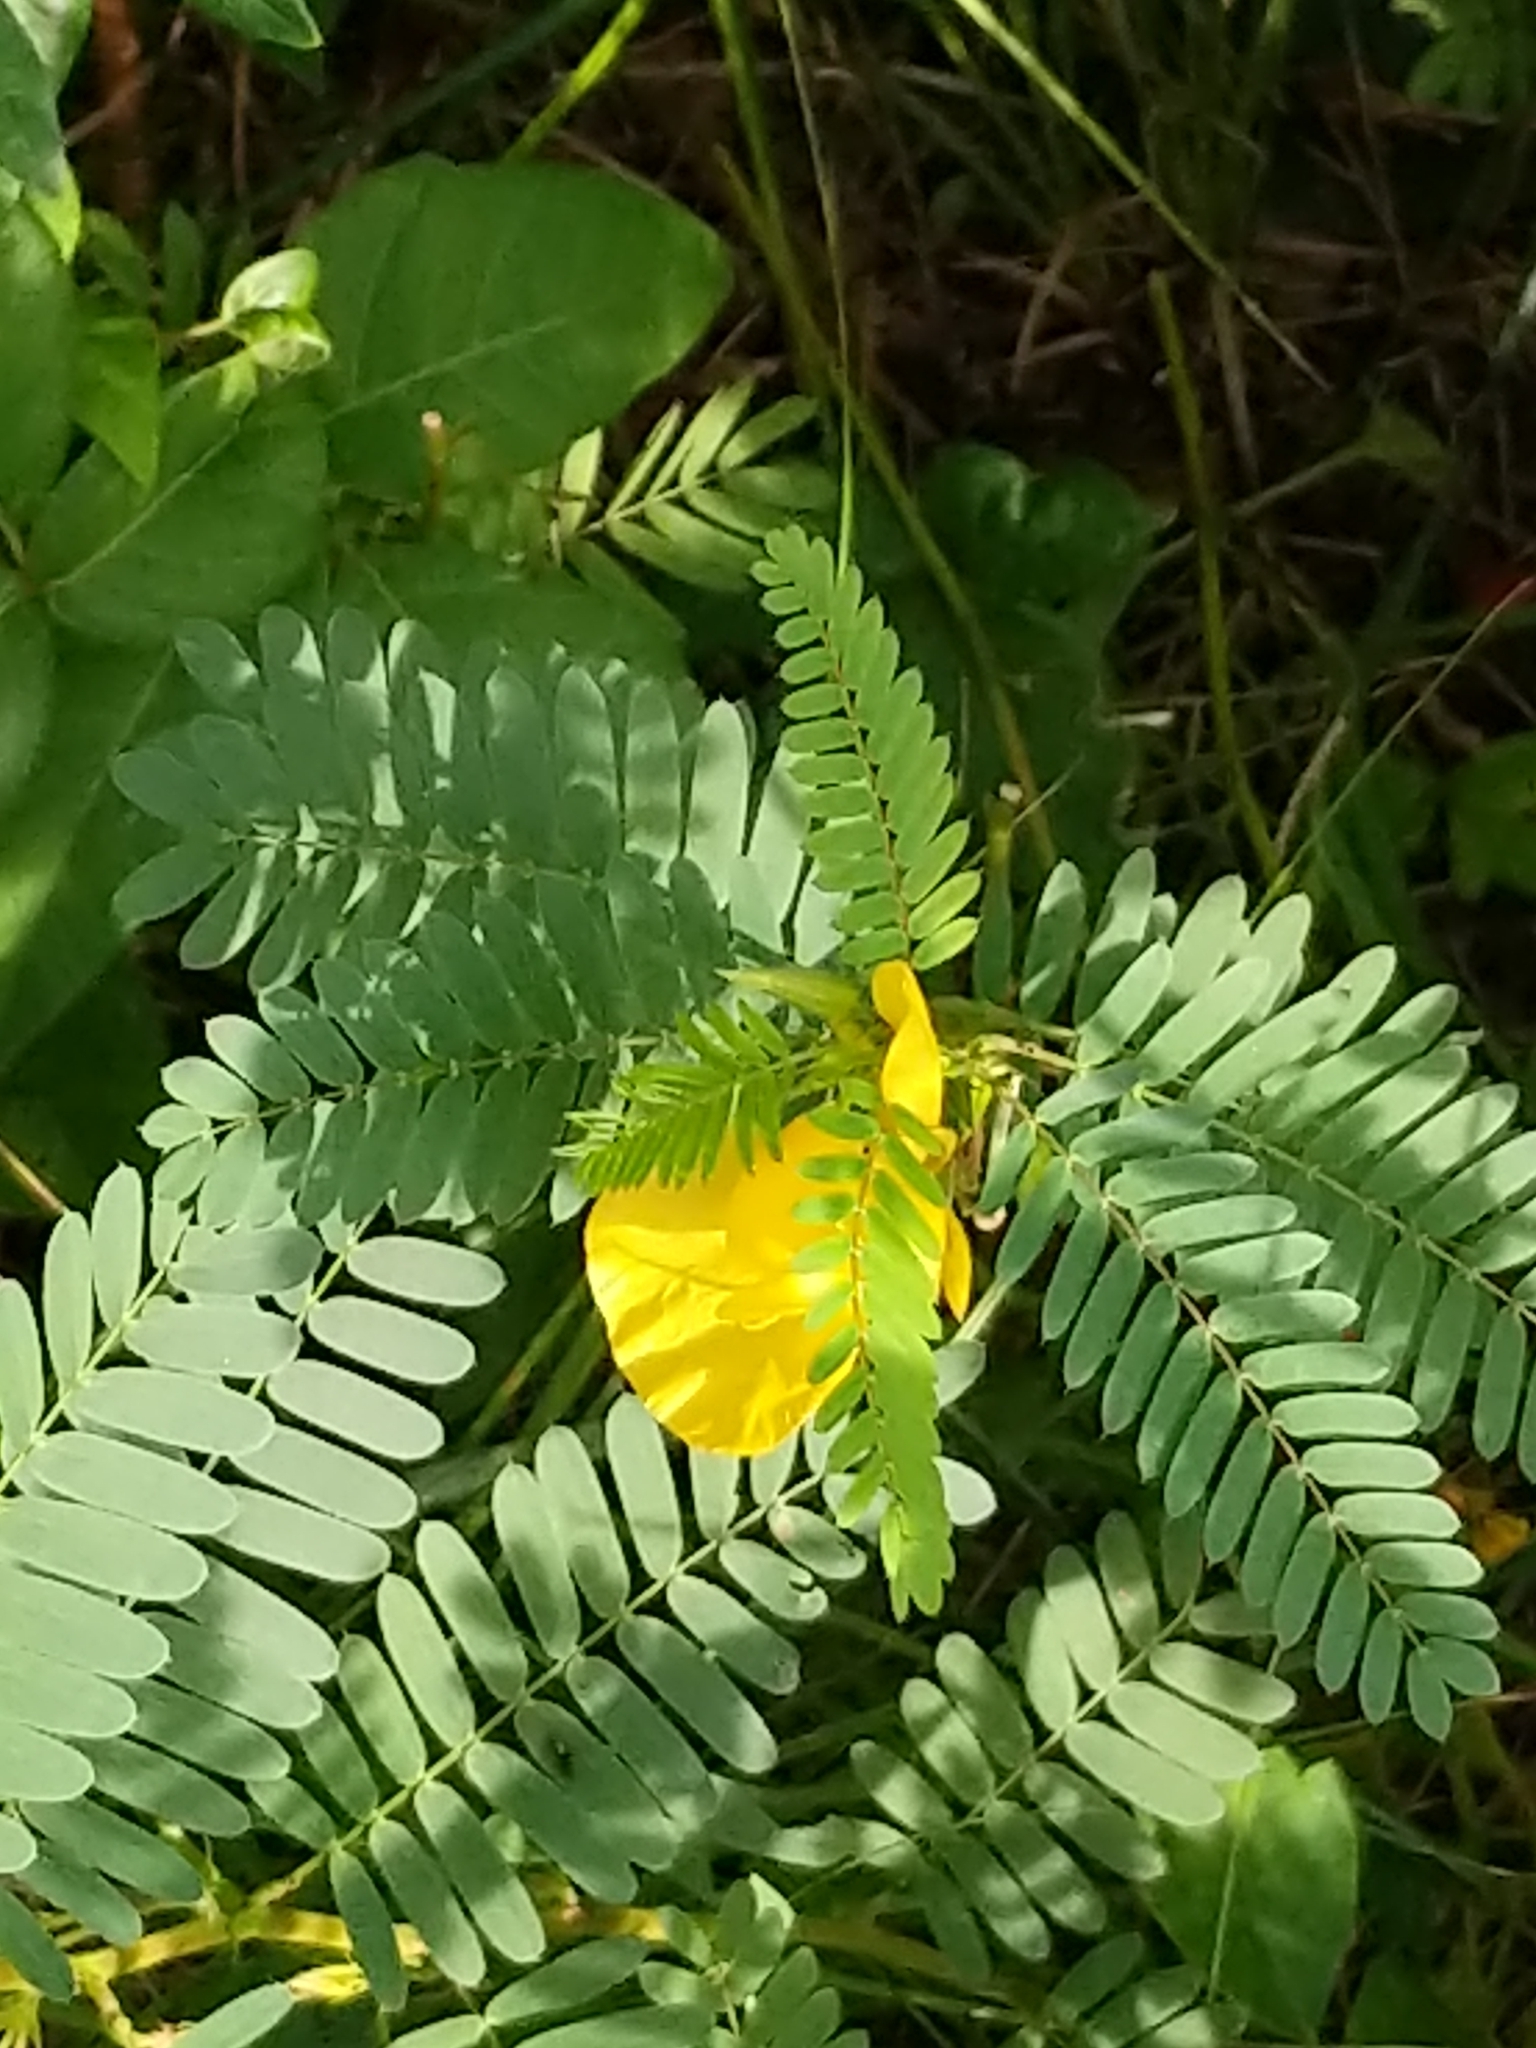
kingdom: Plantae
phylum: Tracheophyta
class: Magnoliopsida
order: Fabales
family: Fabaceae
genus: Chamaecrista
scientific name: Chamaecrista fasciculata
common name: Golden cassia
